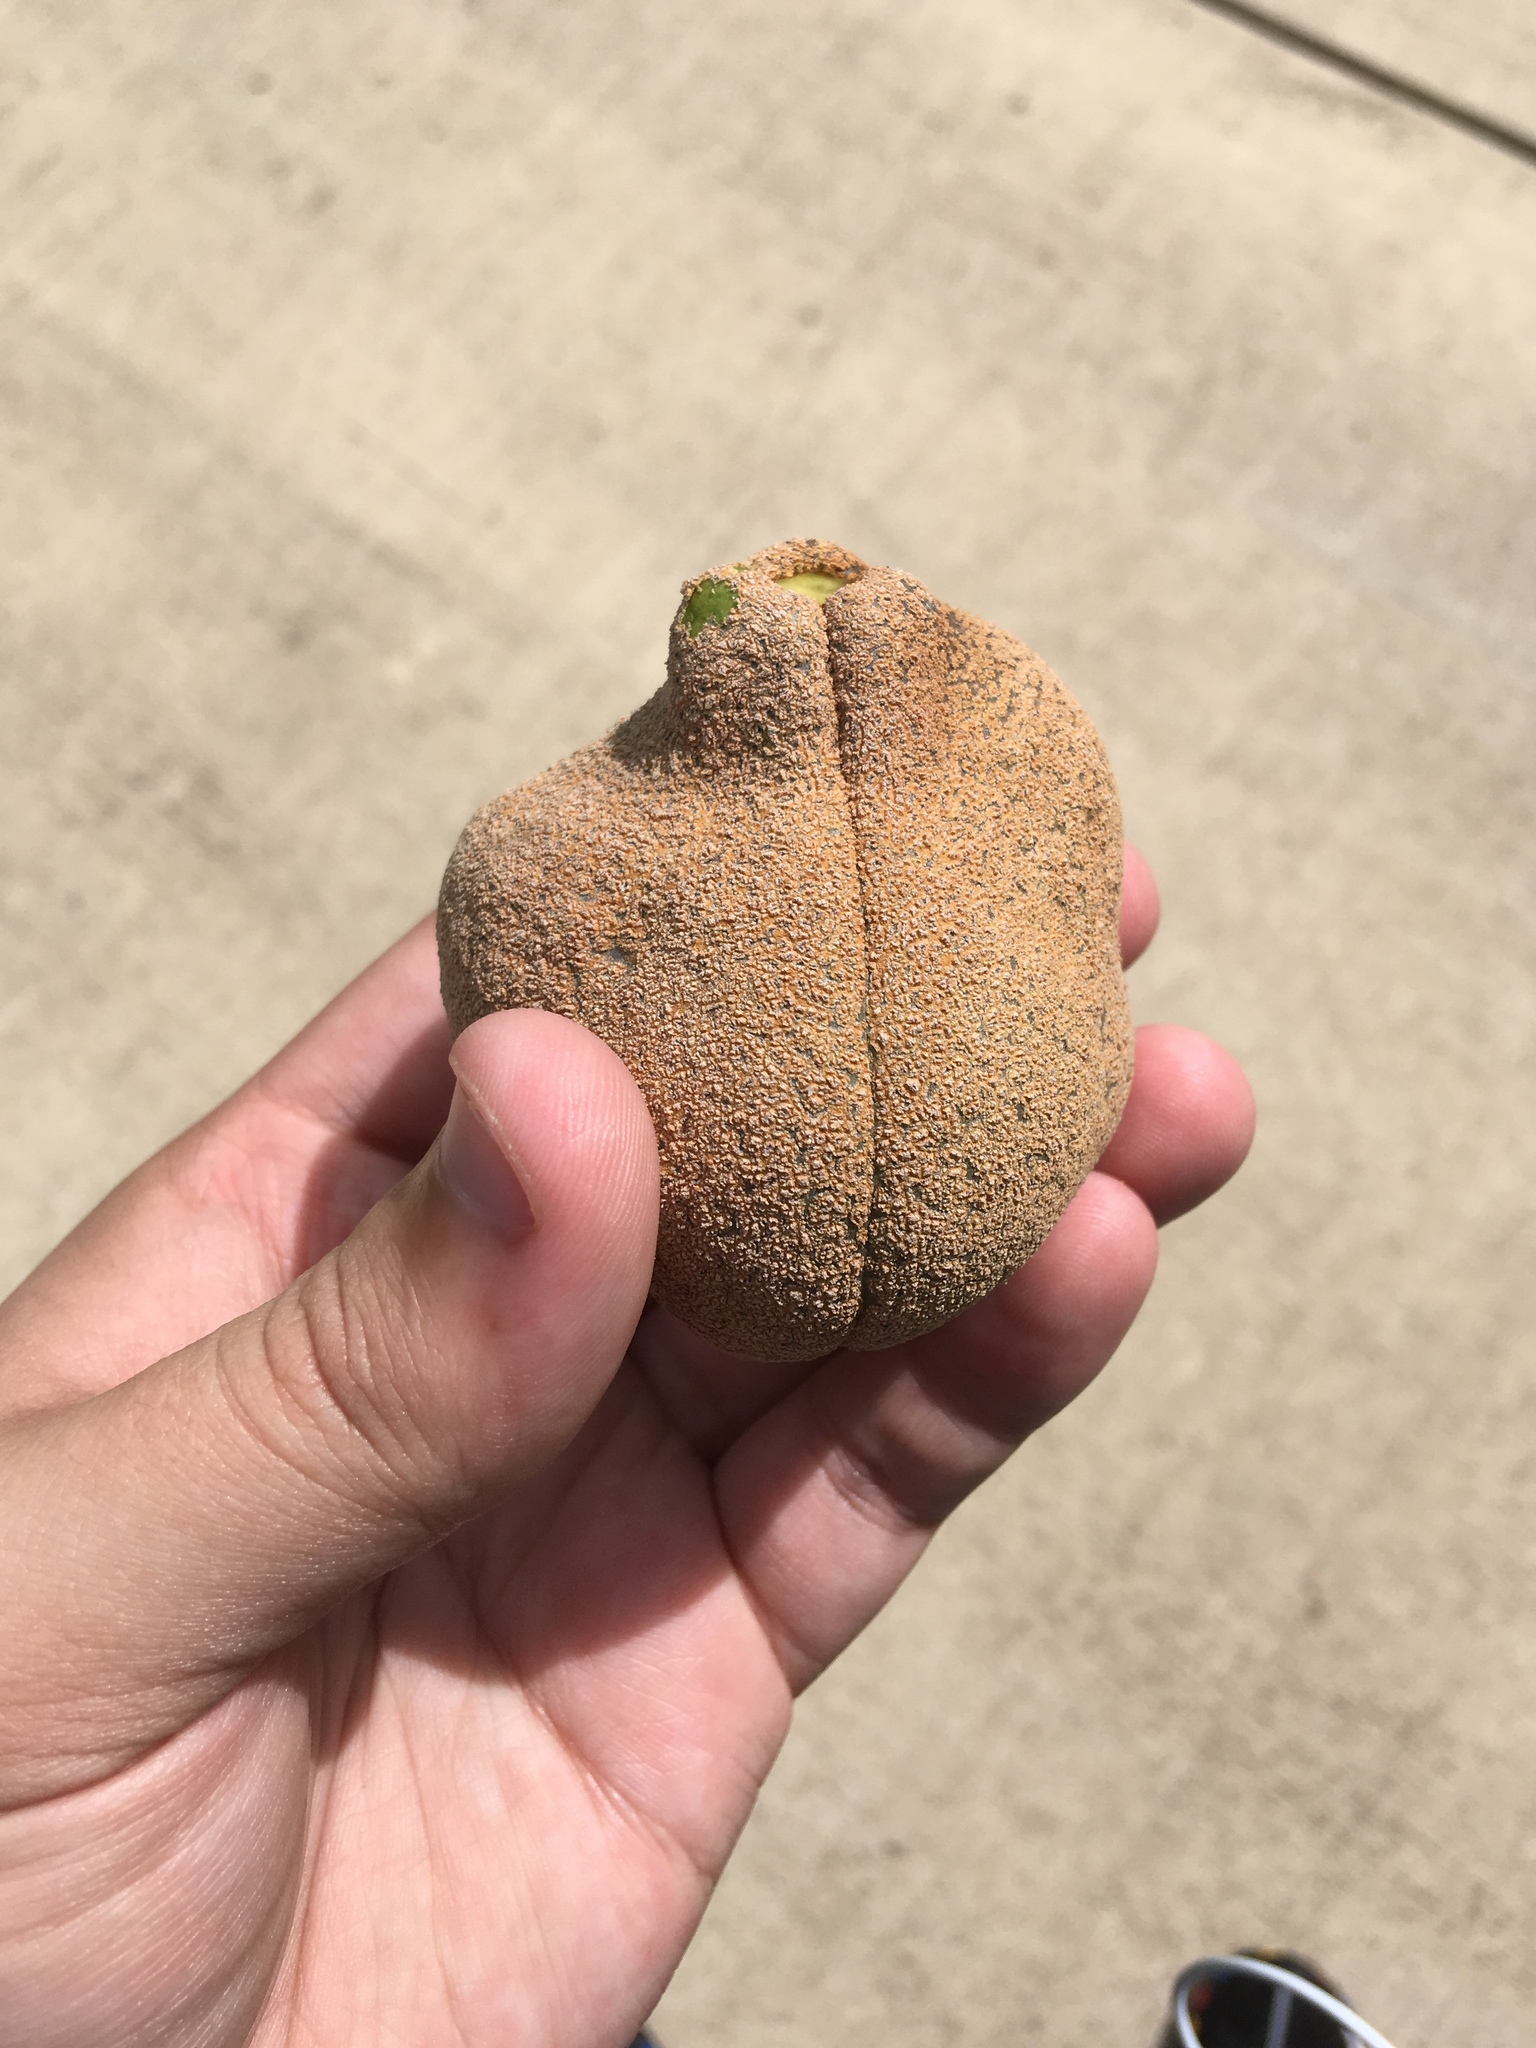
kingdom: Plantae
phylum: Tracheophyta
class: Magnoliopsida
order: Sapindales
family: Sapindaceae
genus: Aesculus
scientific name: Aesculus pavia
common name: Red buckeye
